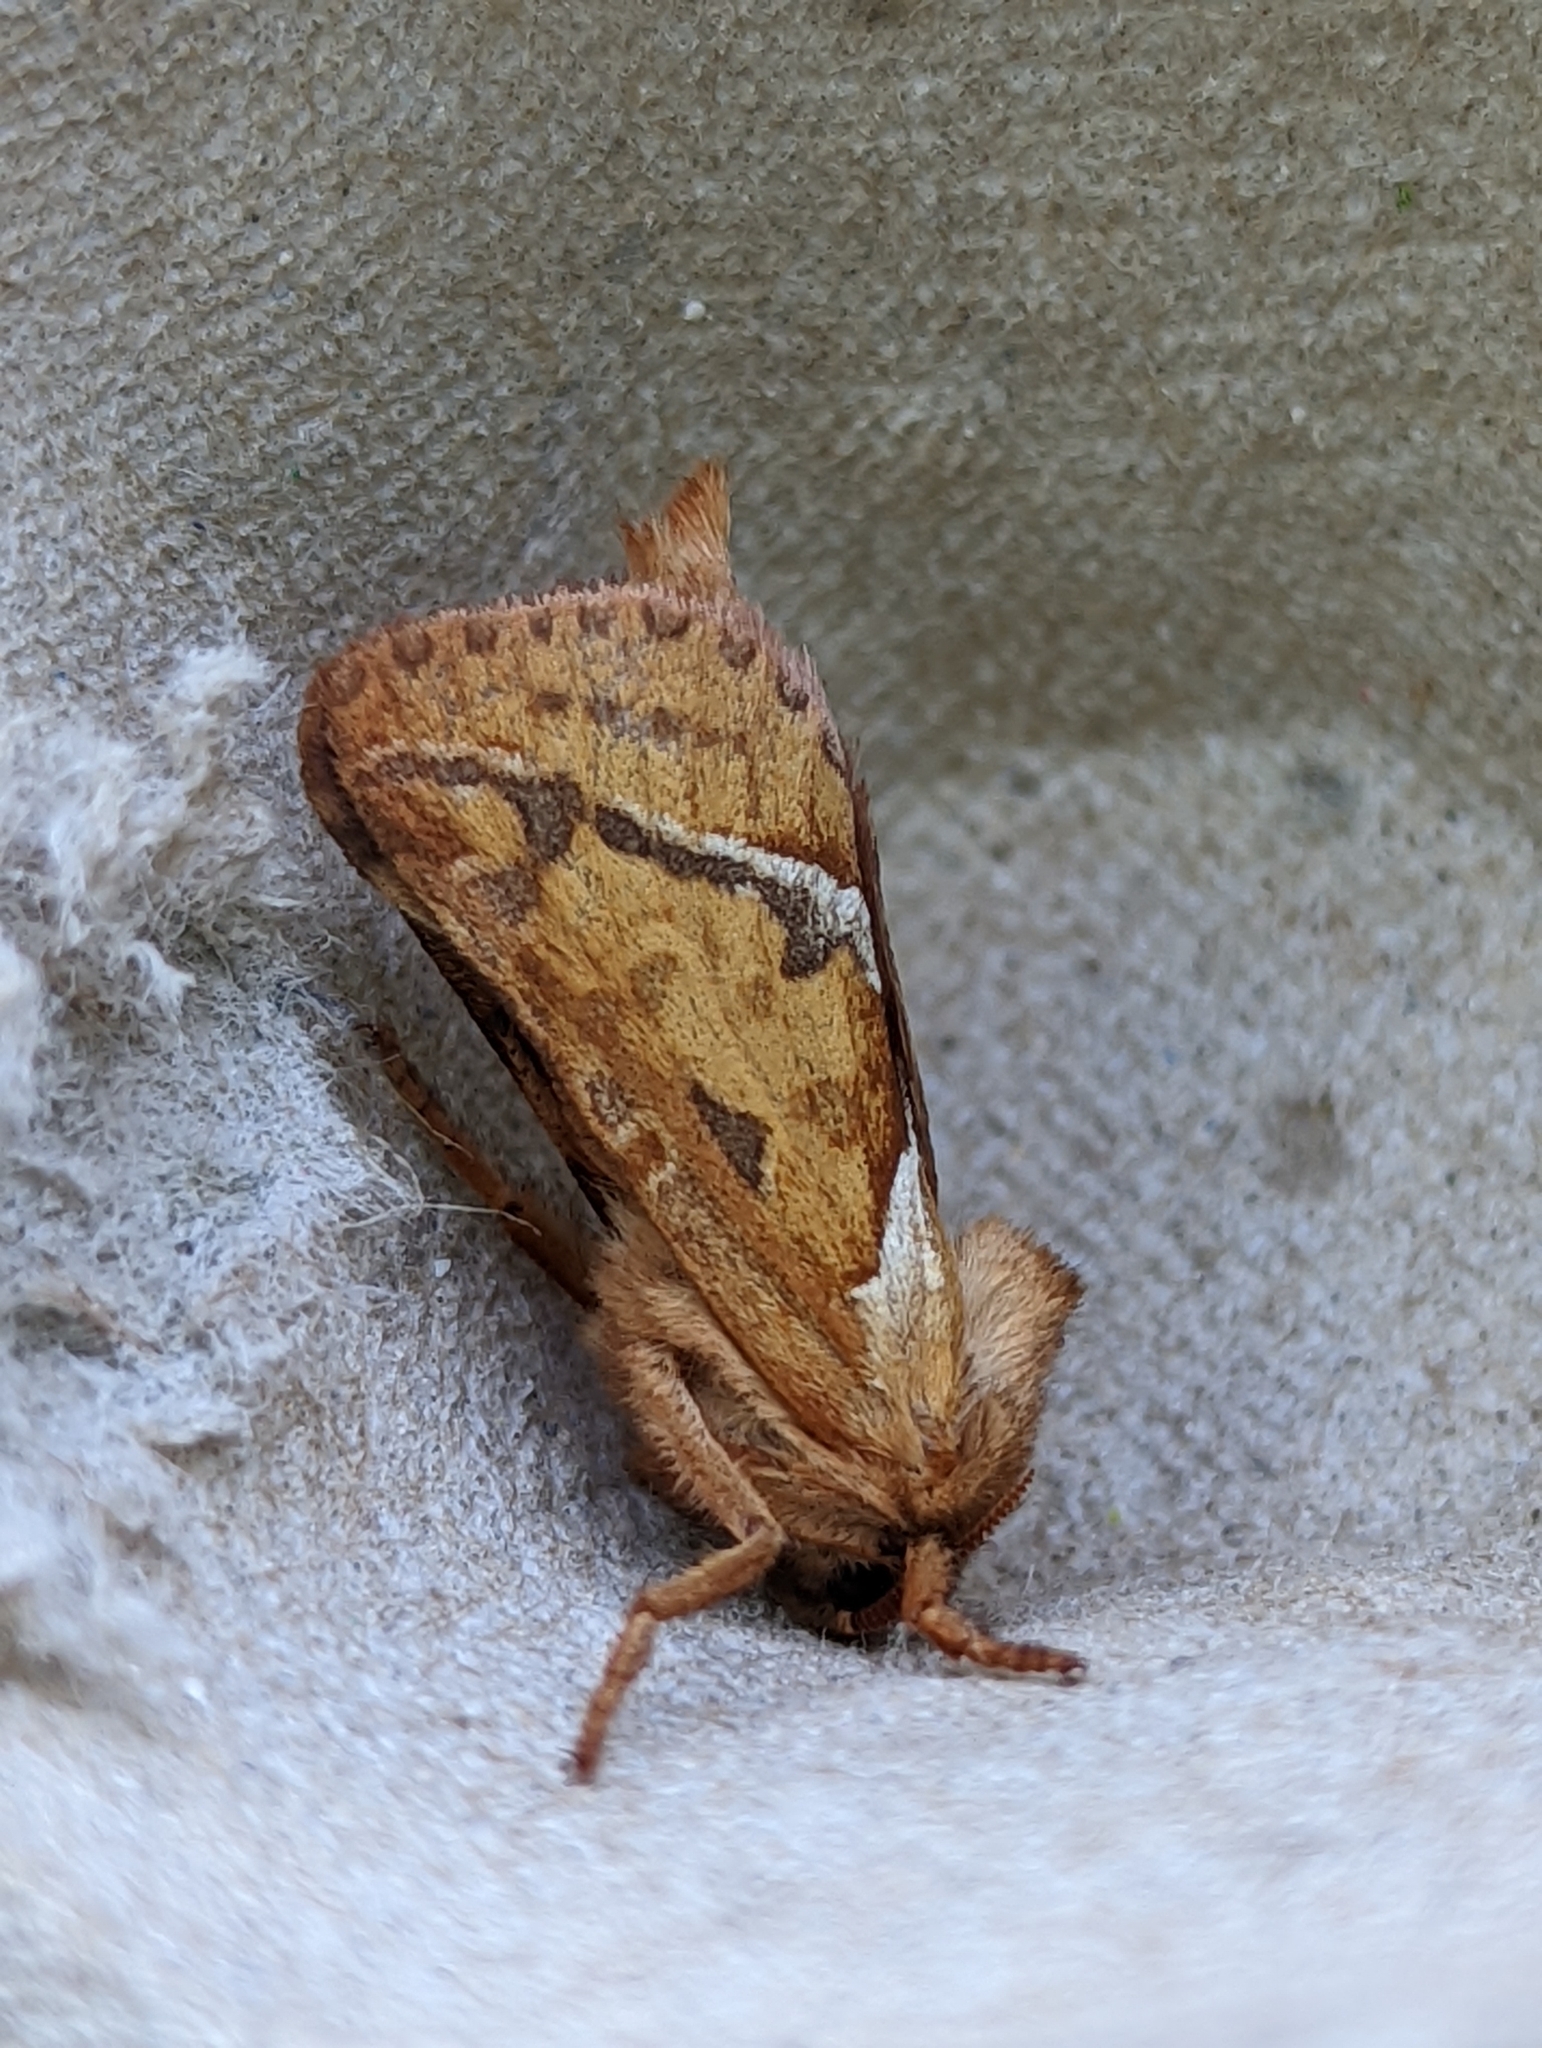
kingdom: Animalia
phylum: Arthropoda
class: Insecta
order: Lepidoptera
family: Hepialidae
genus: Triodia
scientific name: Triodia sylvina
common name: Orange swift
